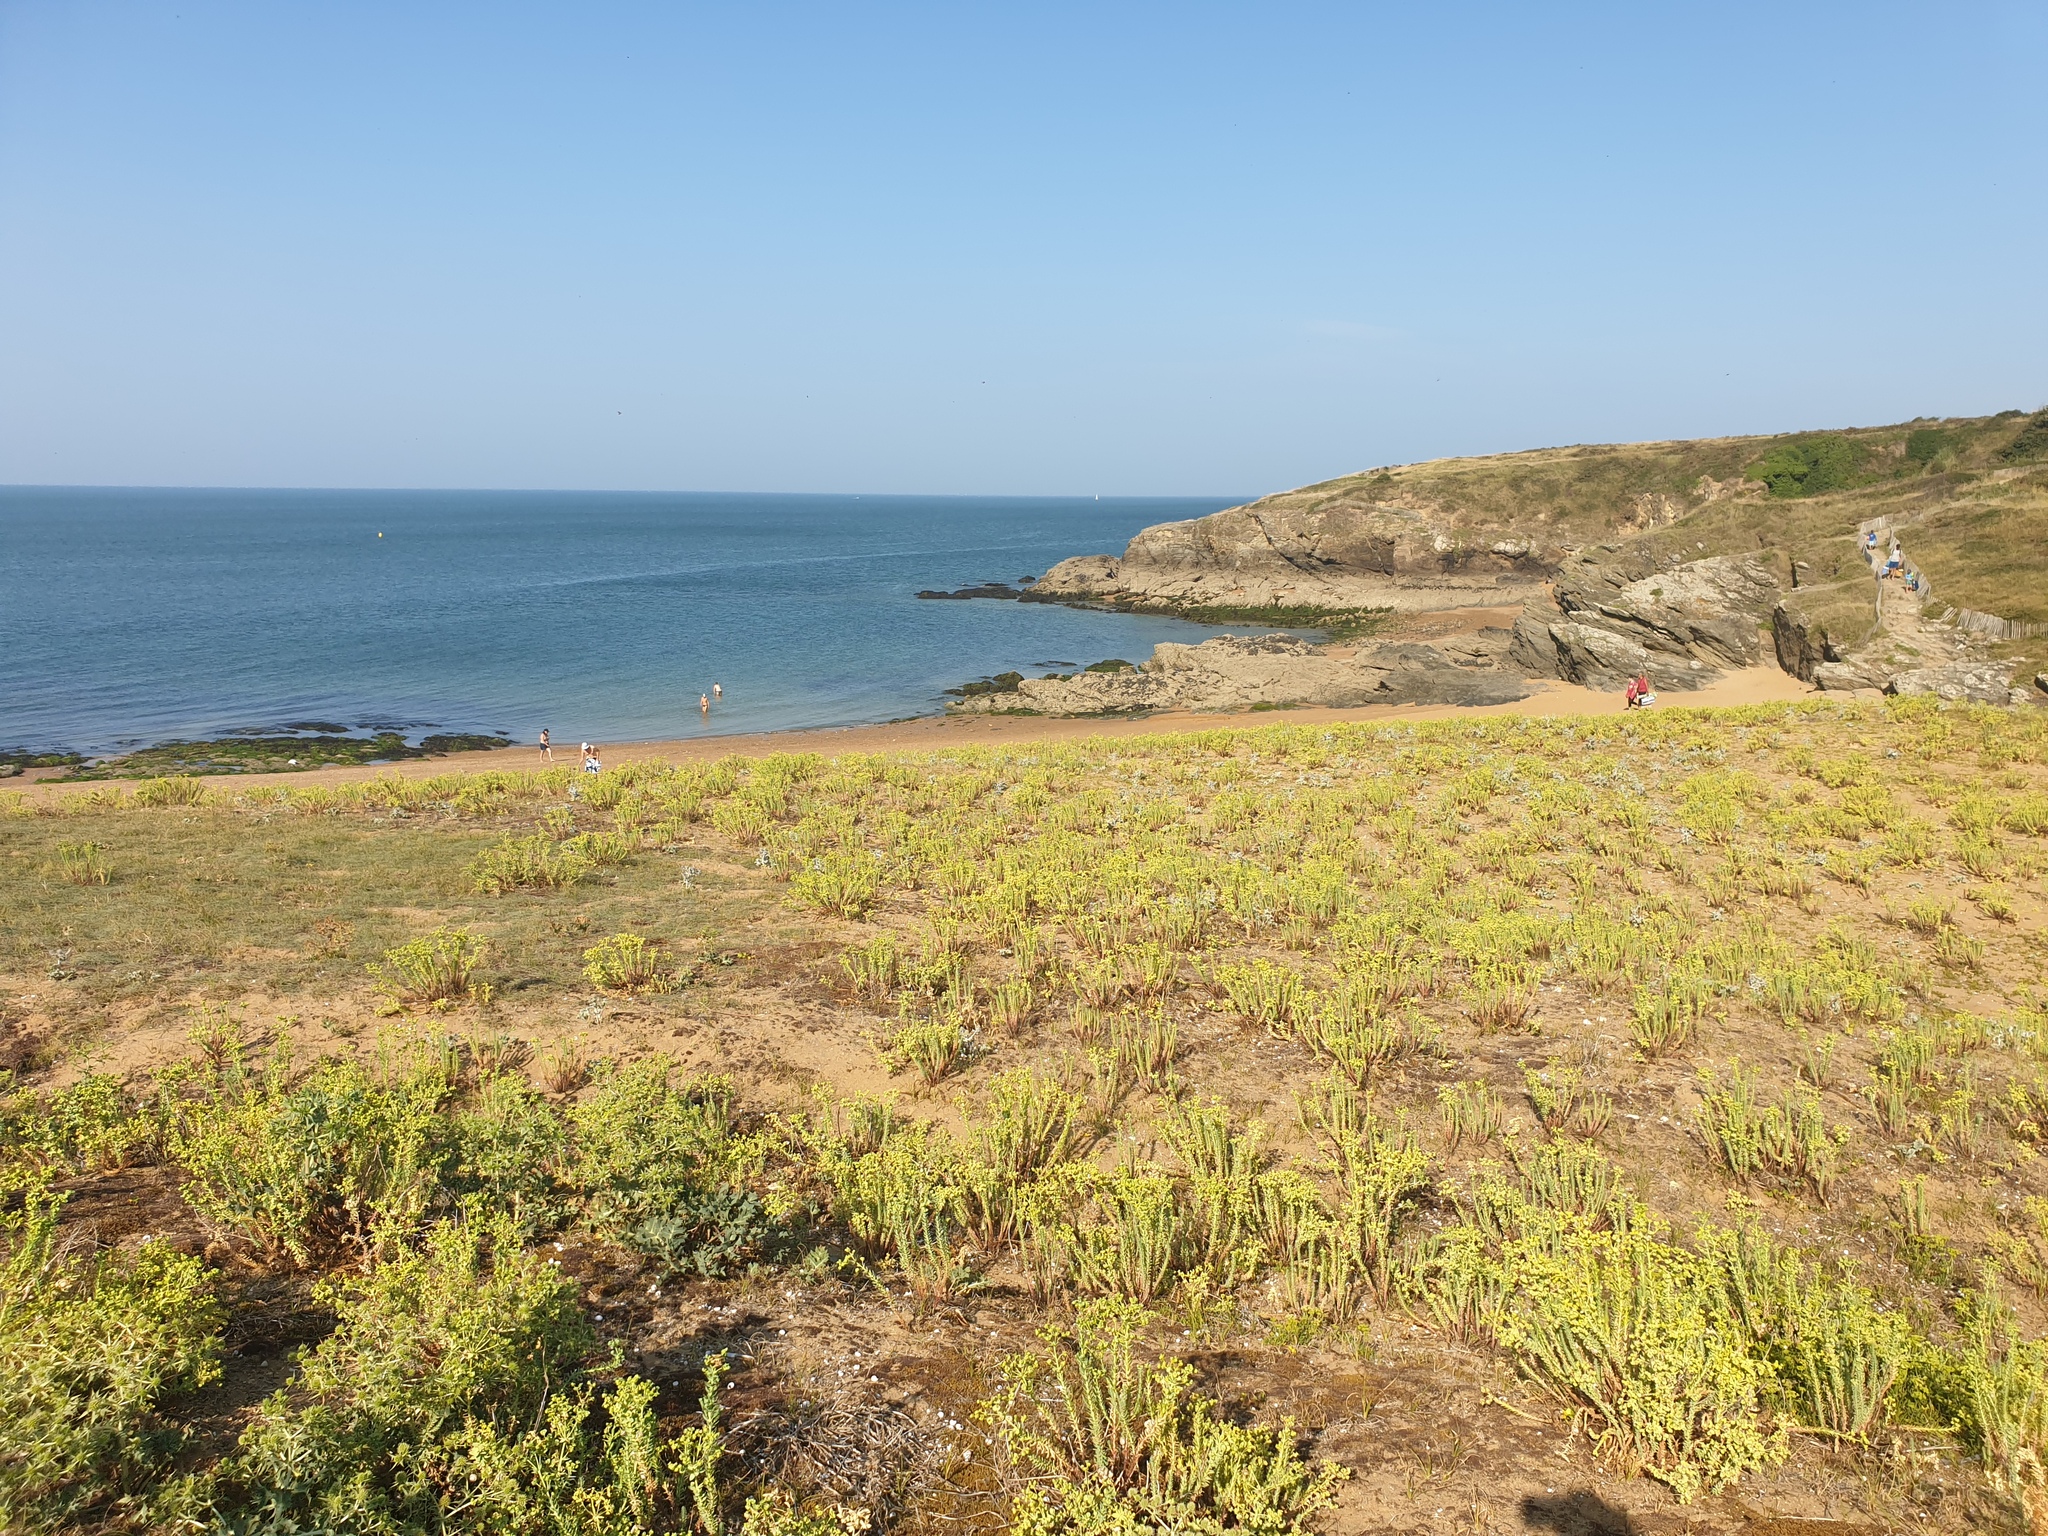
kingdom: Plantae
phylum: Tracheophyta
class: Magnoliopsida
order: Malpighiales
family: Euphorbiaceae
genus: Euphorbia
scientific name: Euphorbia paralias
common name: Sea spurge
